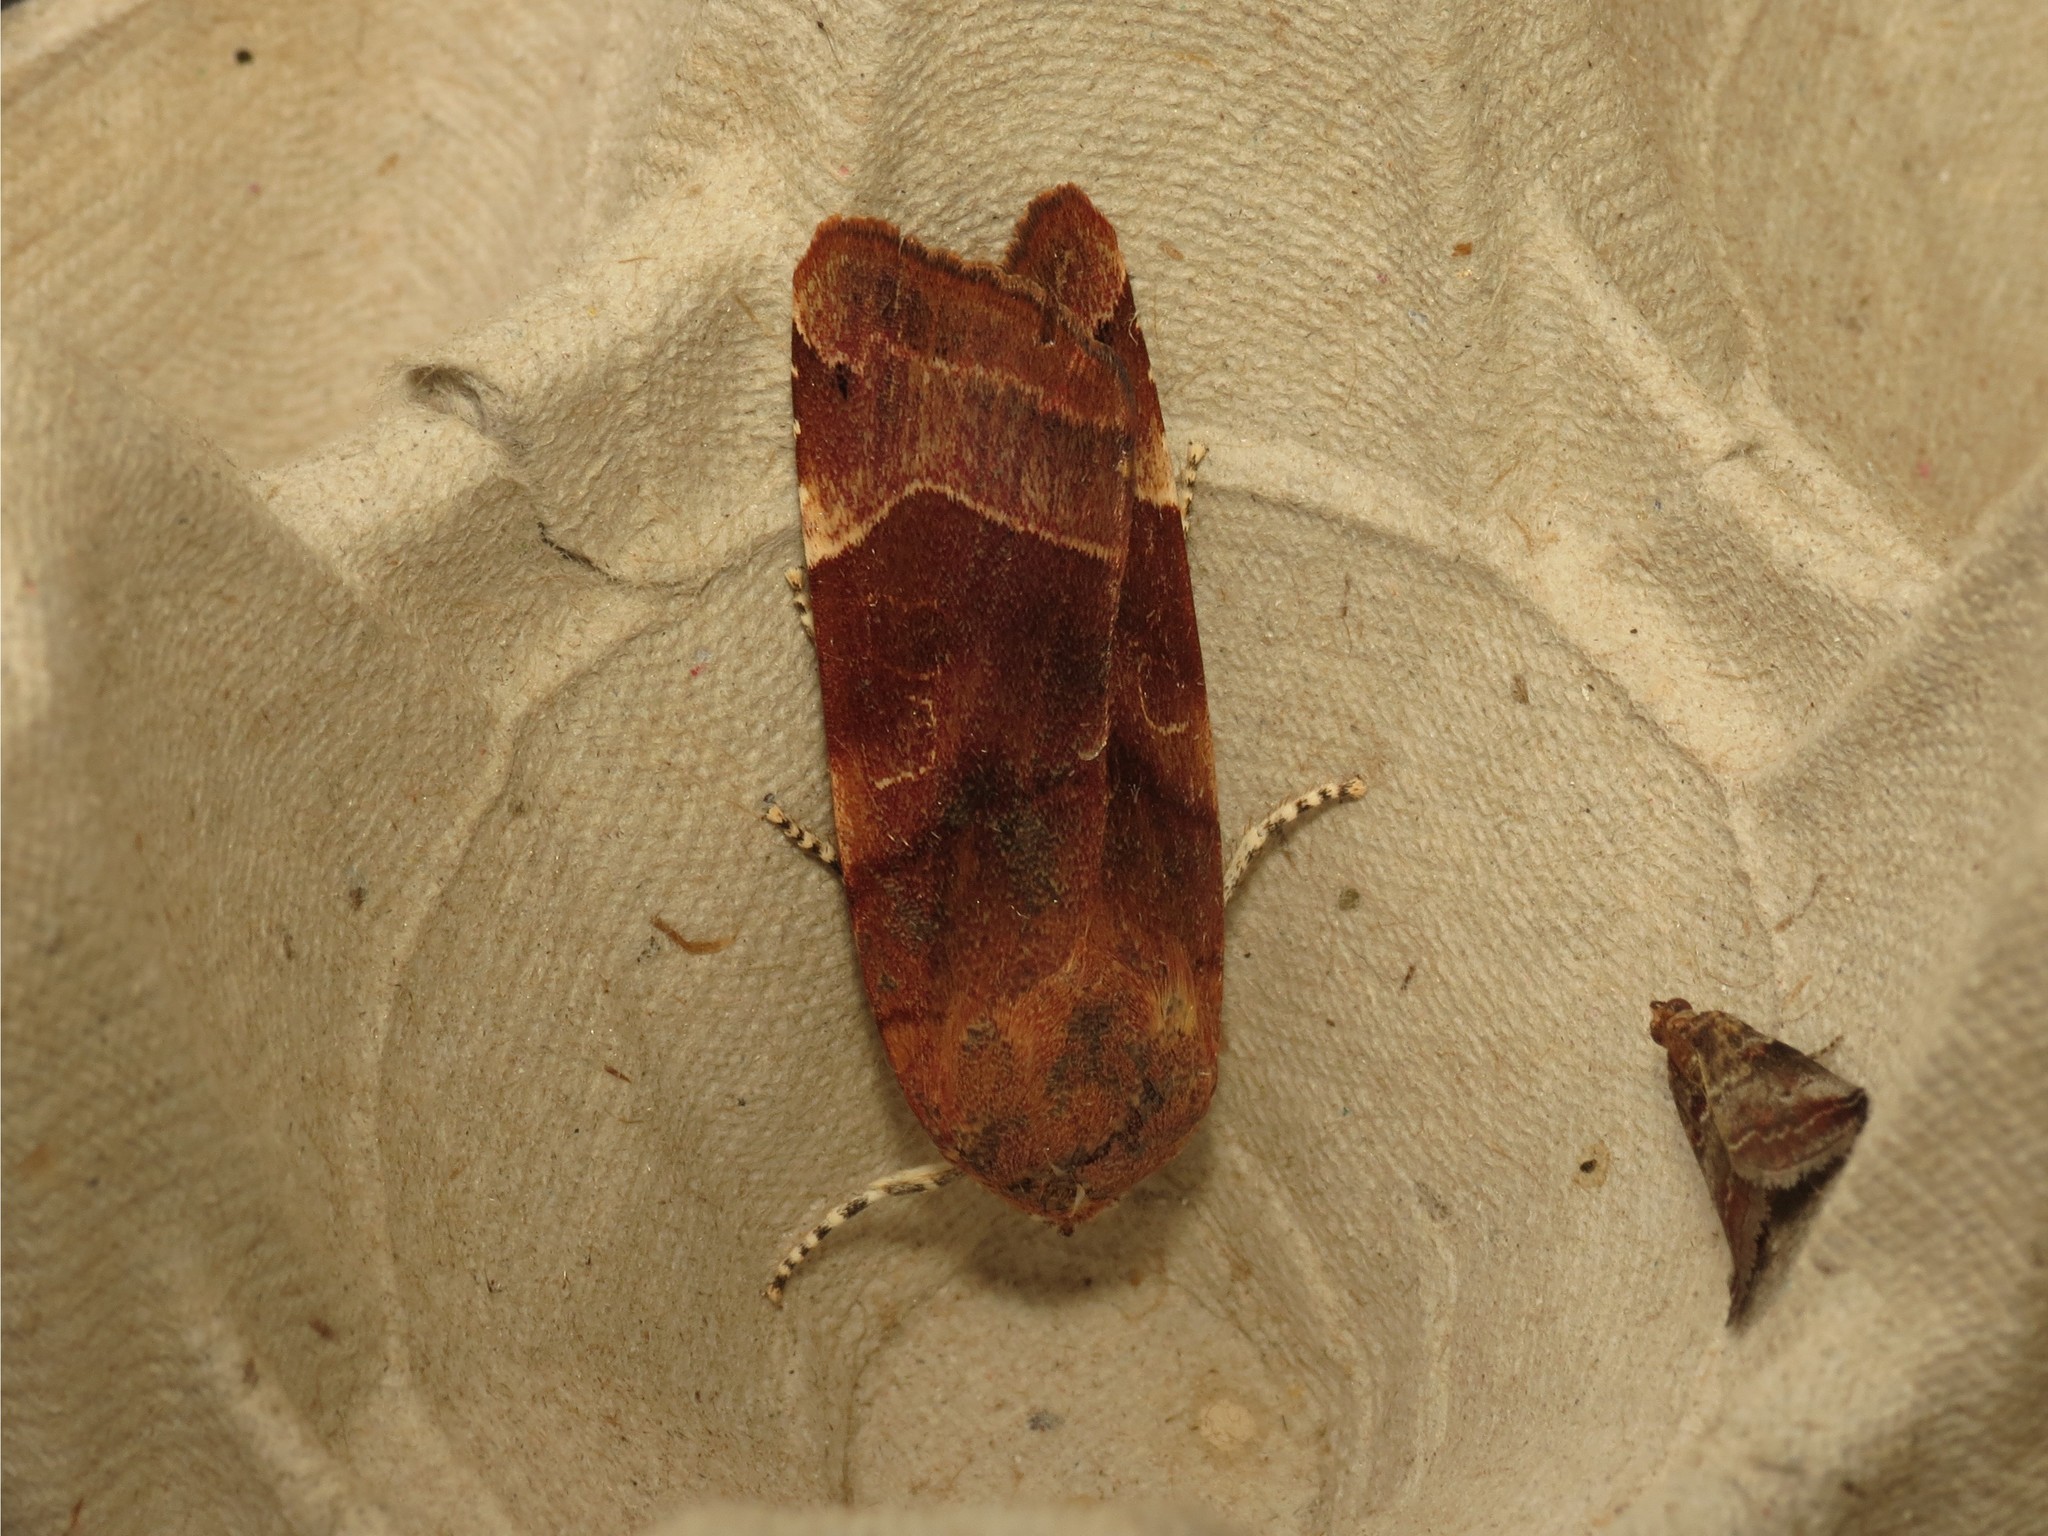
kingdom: Animalia
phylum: Arthropoda
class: Insecta
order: Lepidoptera
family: Noctuidae
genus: Noctua
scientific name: Noctua fimbriata
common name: Broad-bordered yellow underwing
